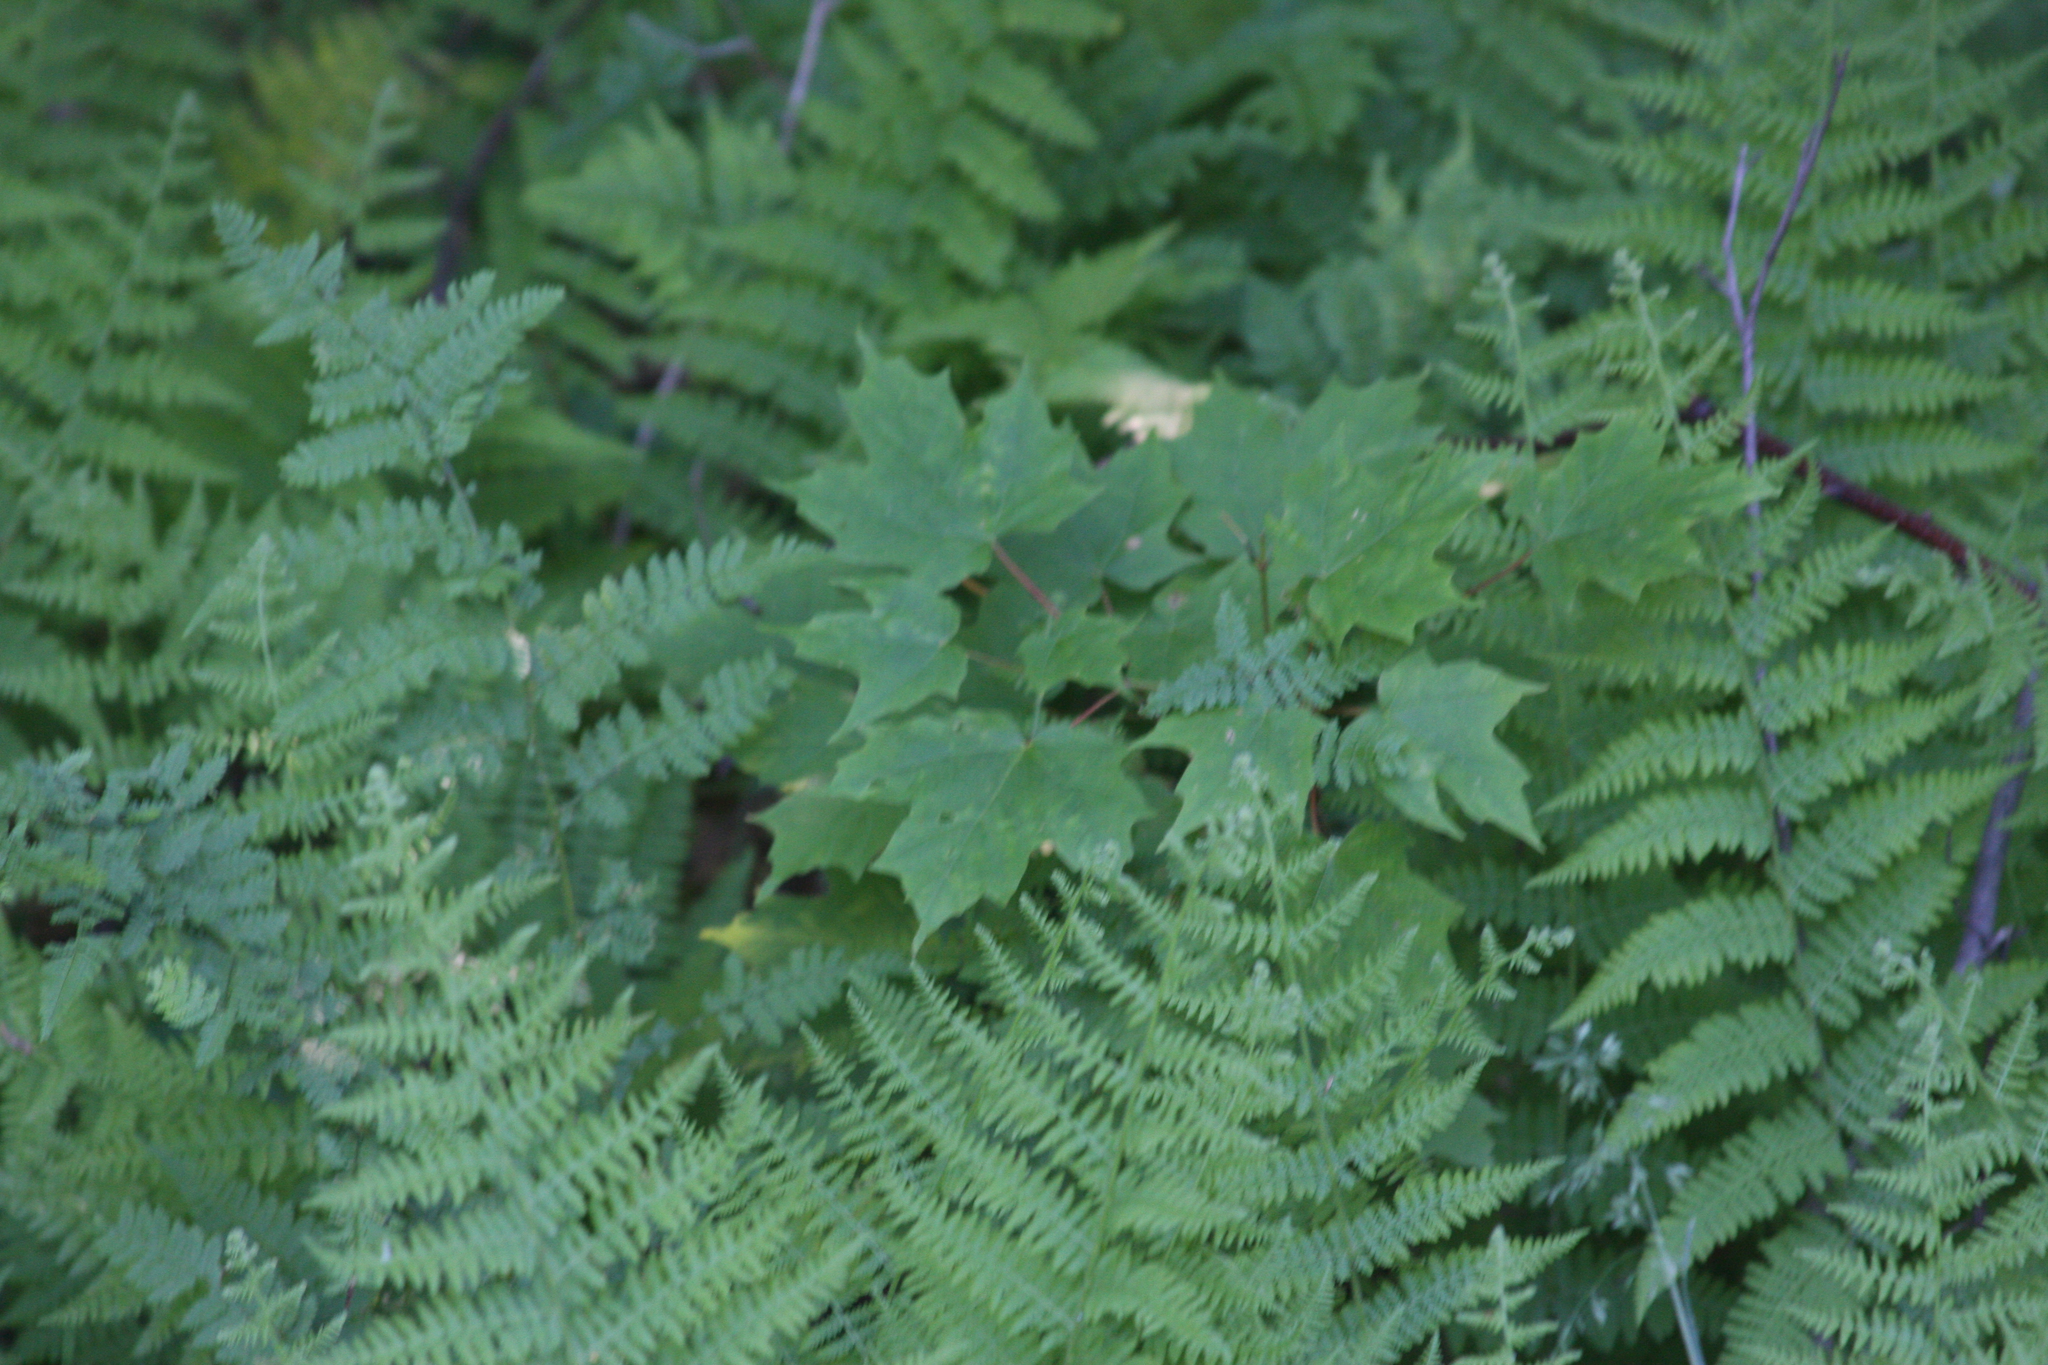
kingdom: Plantae
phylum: Tracheophyta
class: Magnoliopsida
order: Sapindales
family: Sapindaceae
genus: Acer
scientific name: Acer saccharum
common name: Sugar maple
